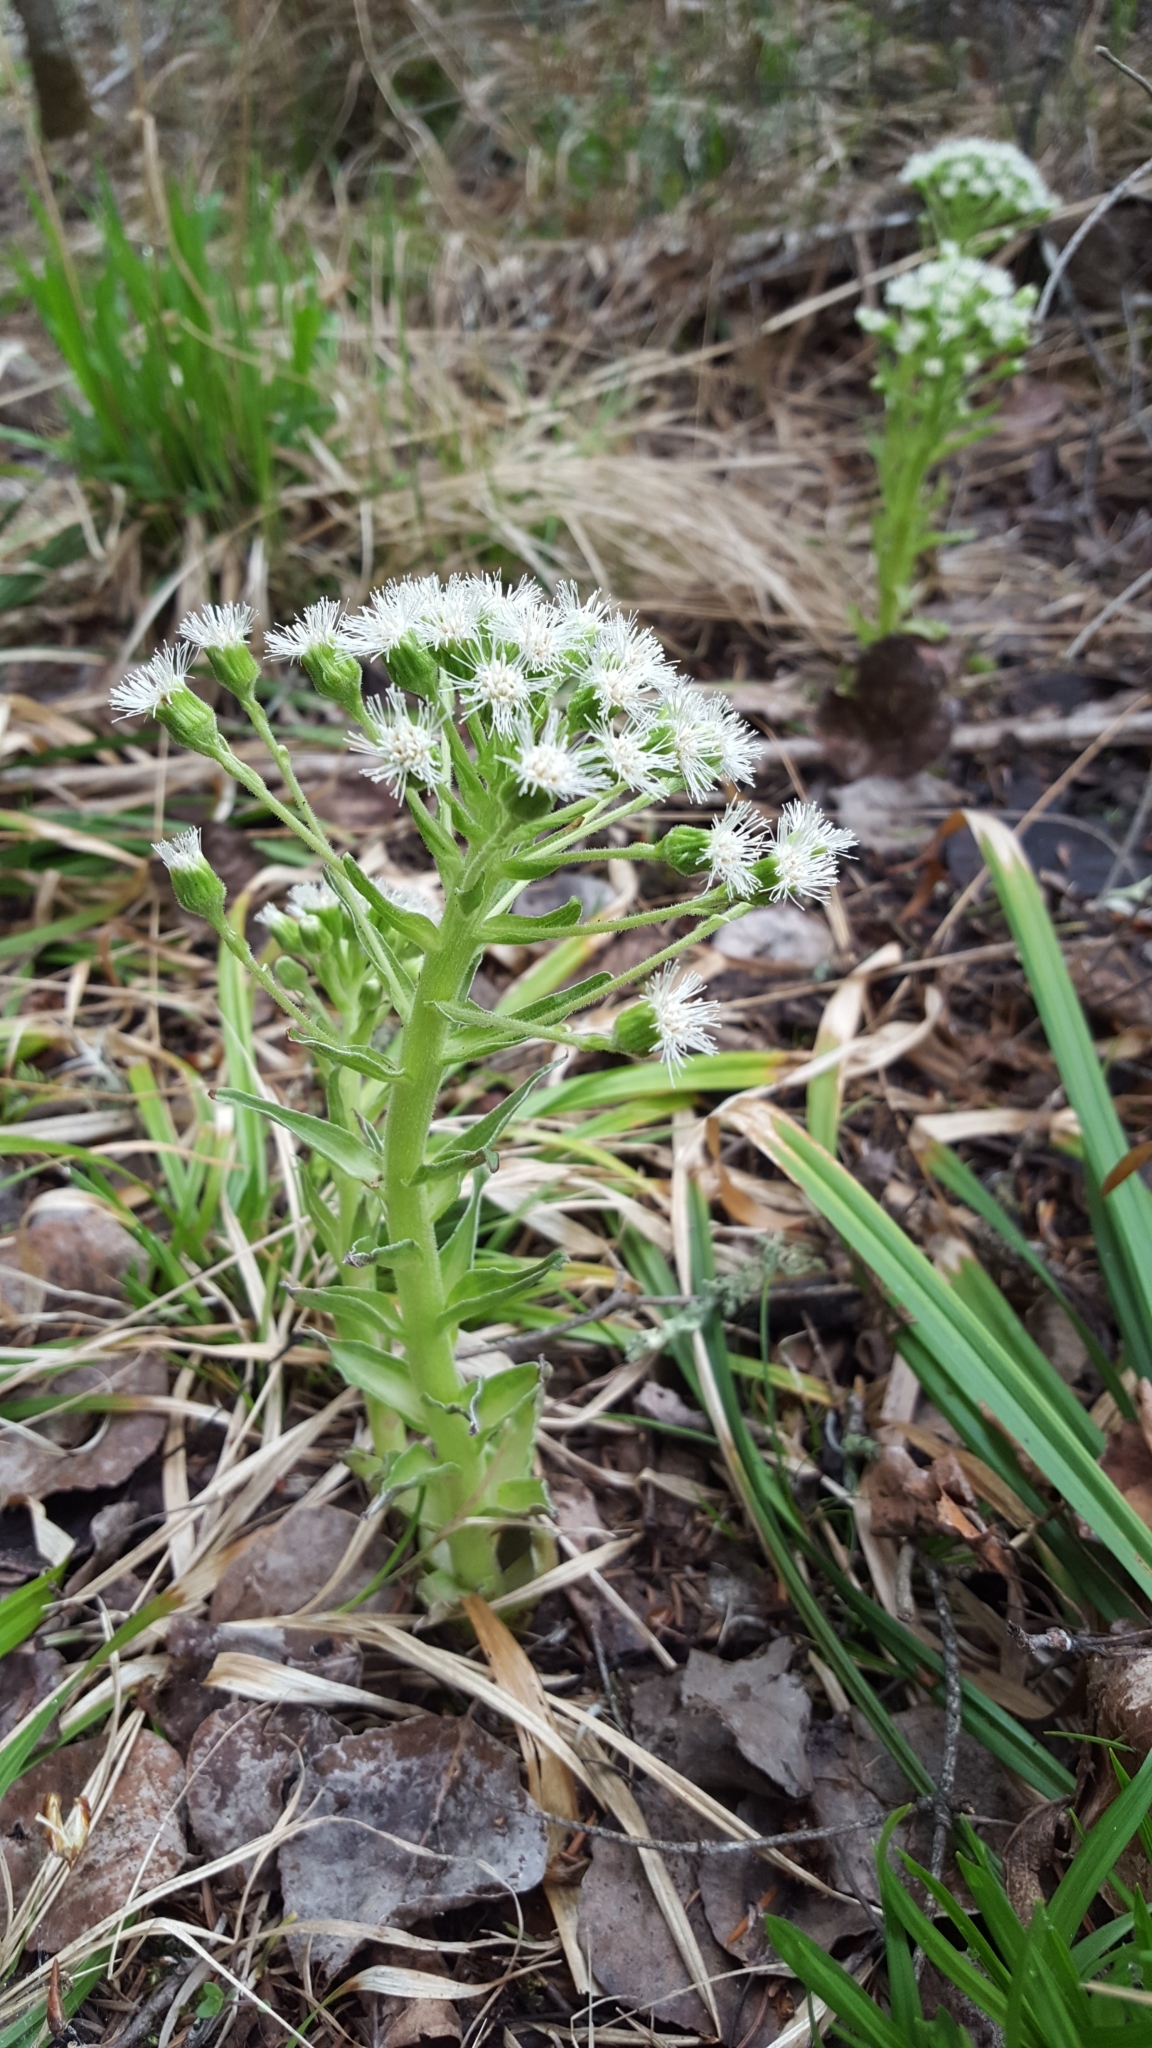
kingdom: Plantae
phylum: Tracheophyta
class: Magnoliopsida
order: Asterales
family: Asteraceae
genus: Petasites
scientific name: Petasites frigidus
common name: Arctic butterbur
